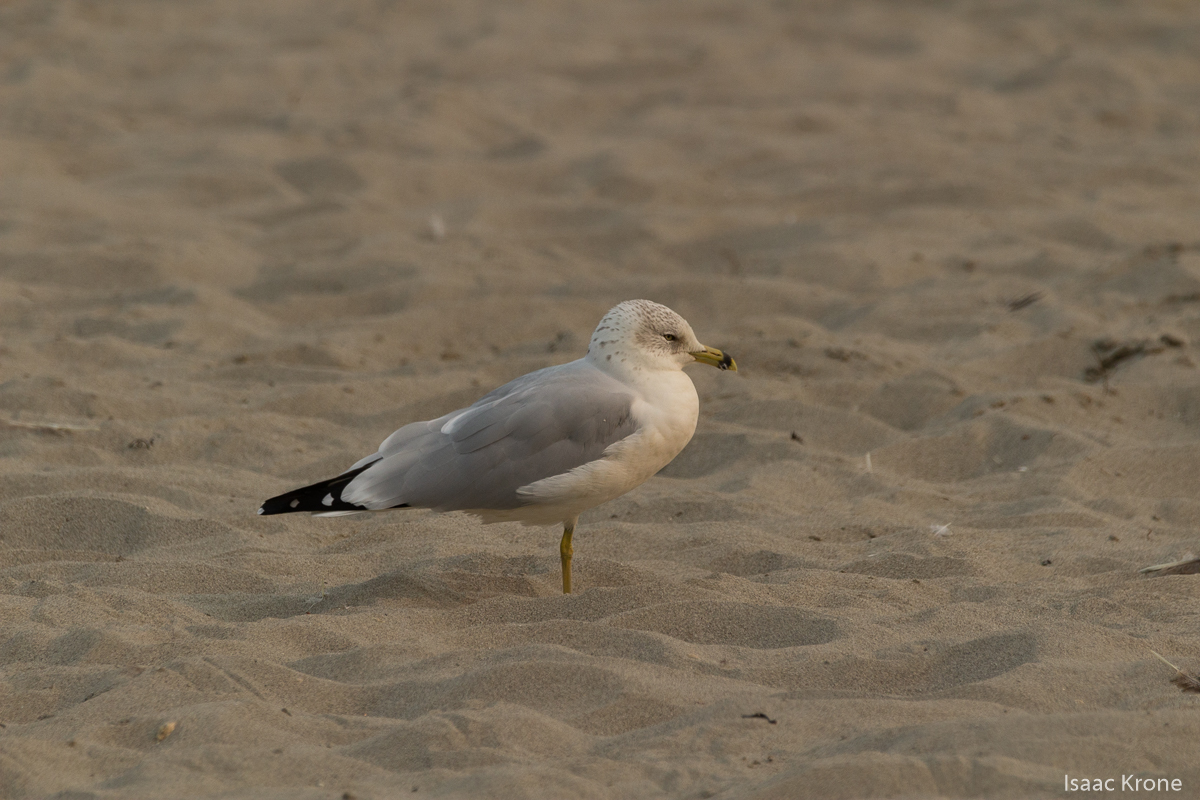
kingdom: Animalia
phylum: Chordata
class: Aves
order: Charadriiformes
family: Laridae
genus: Larus
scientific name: Larus delawarensis
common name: Ring-billed gull
